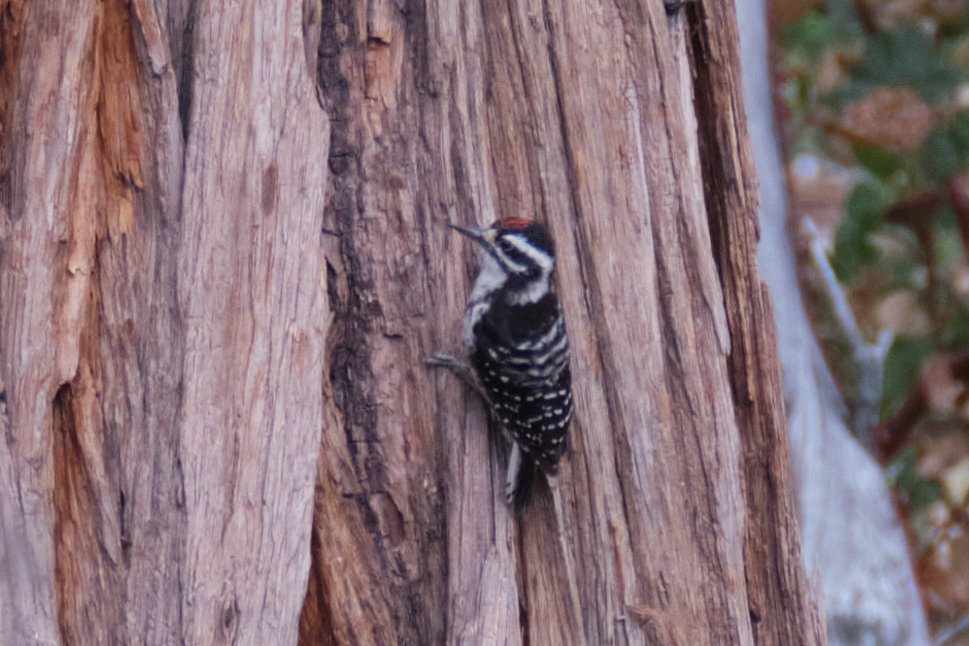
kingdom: Animalia
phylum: Chordata
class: Aves
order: Piciformes
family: Picidae
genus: Dryobates
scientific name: Dryobates nuttallii
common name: Nuttall's woodpecker
